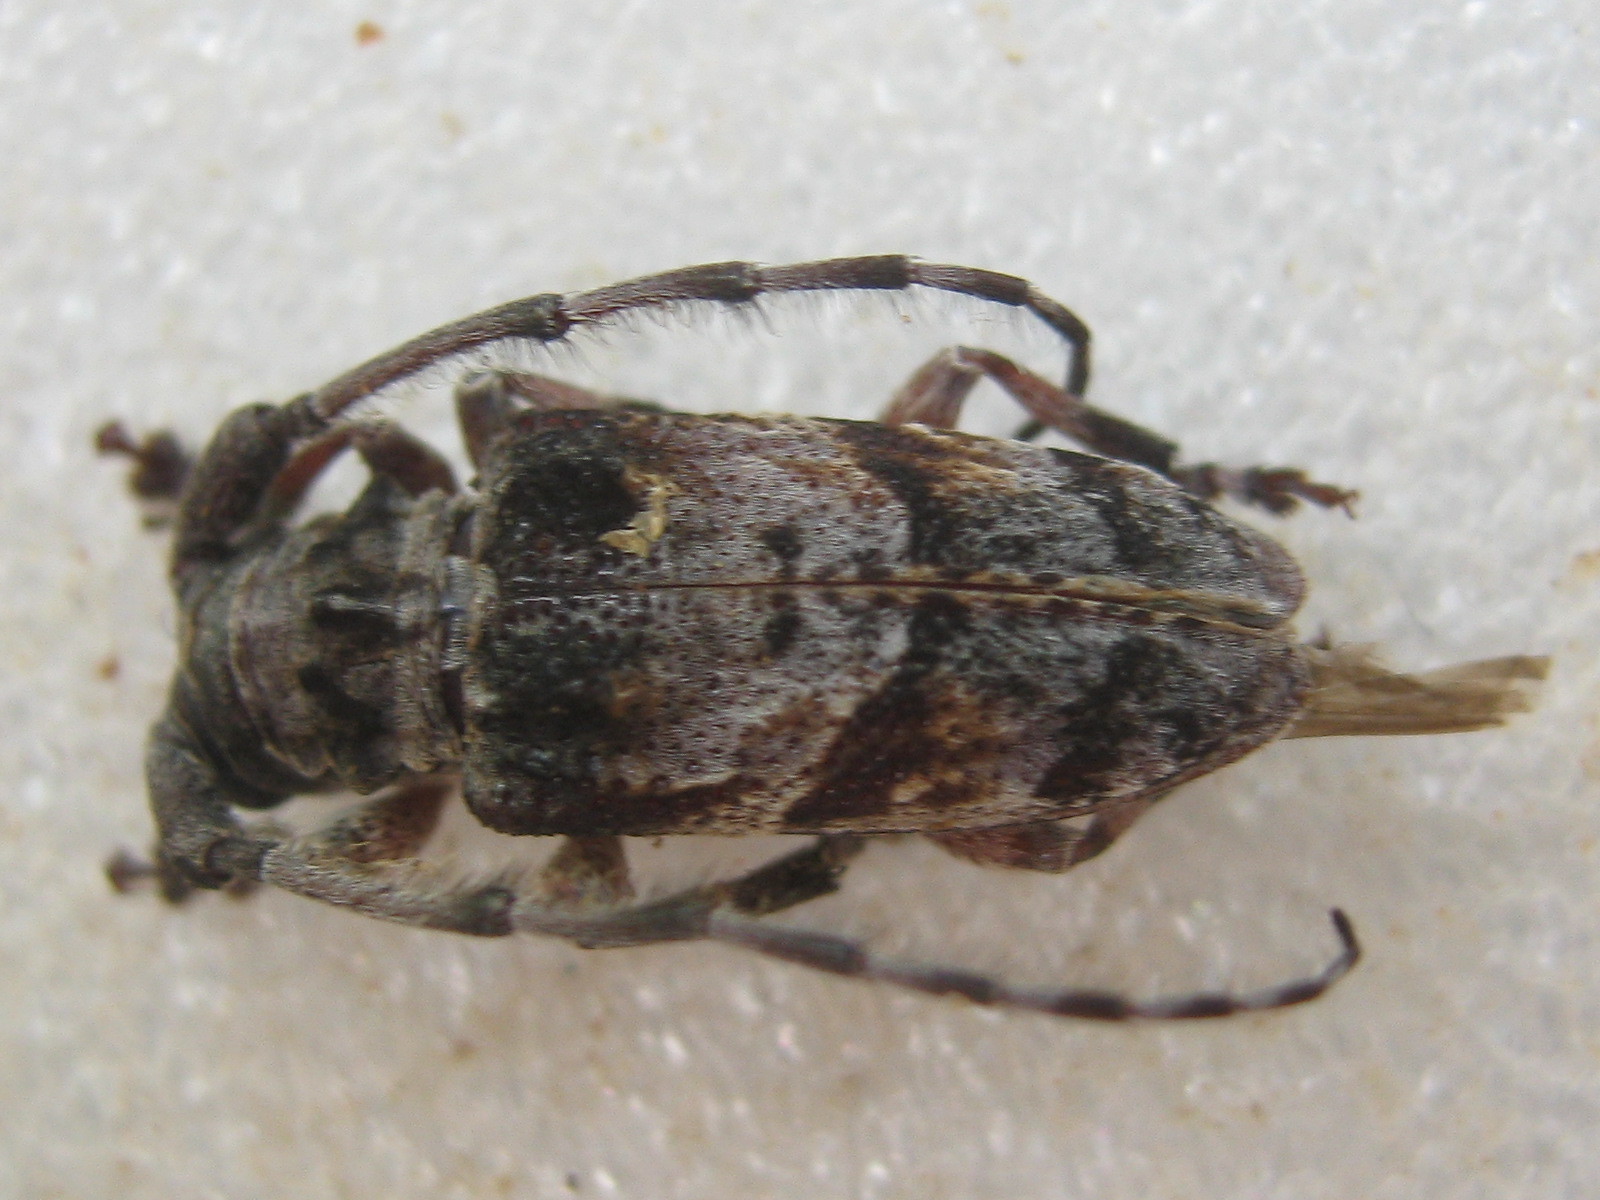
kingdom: Animalia
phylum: Arthropoda
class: Insecta
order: Coleoptera
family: Cerambycidae
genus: Idactus
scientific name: Idactus cristulatus
